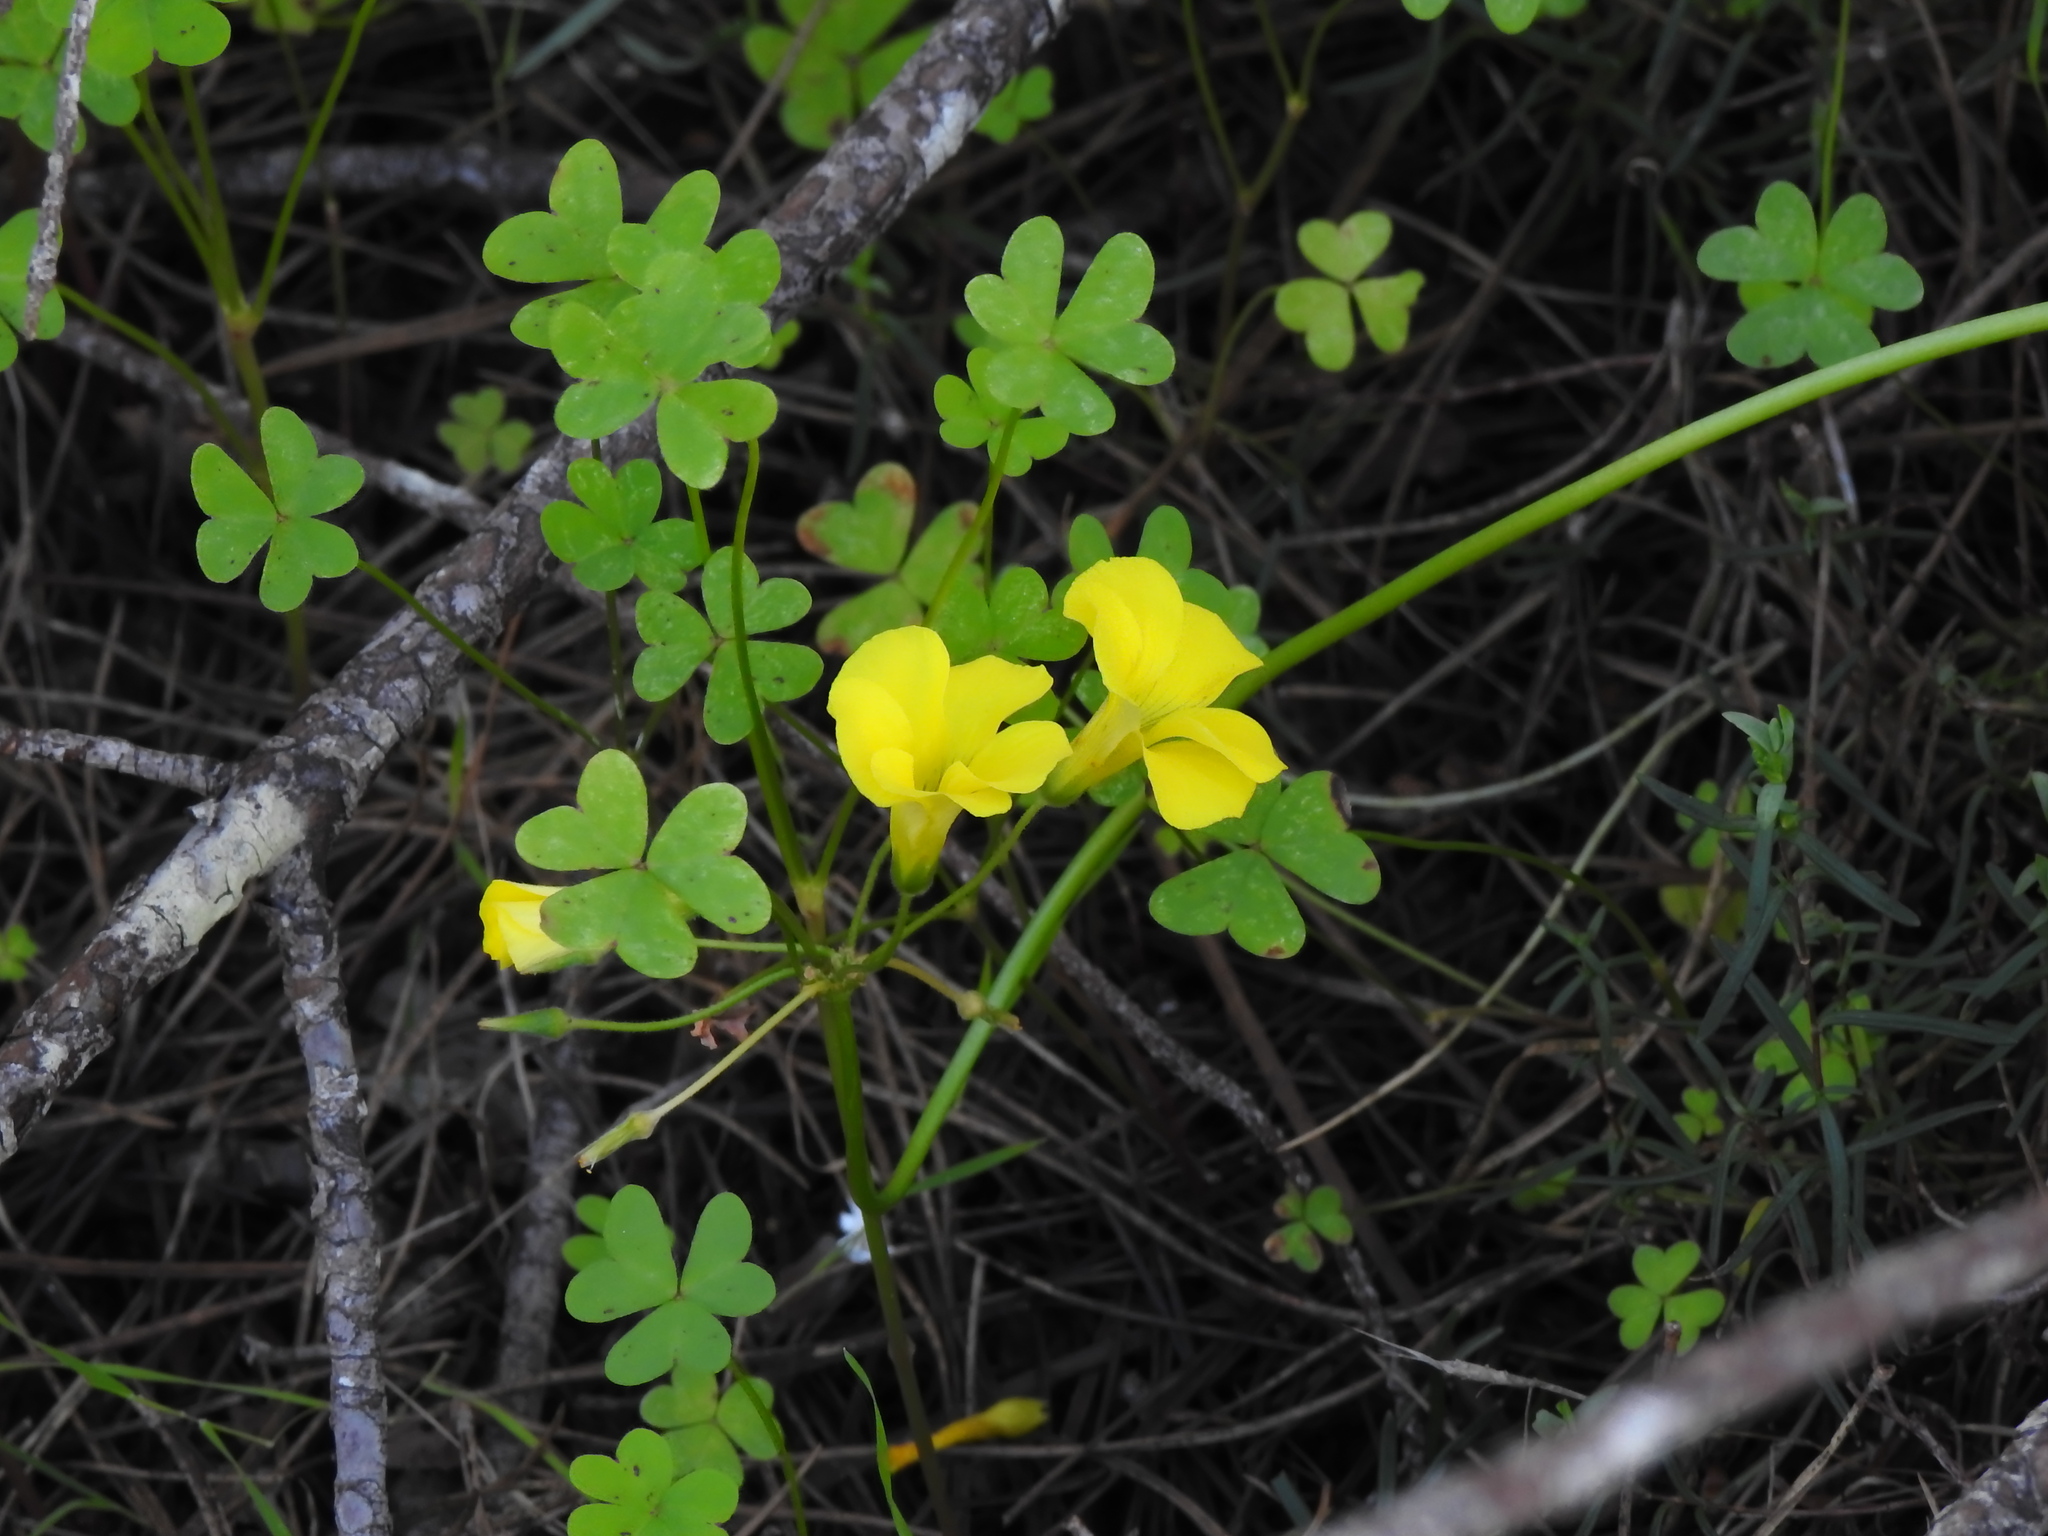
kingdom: Plantae
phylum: Tracheophyta
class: Magnoliopsida
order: Oxalidales
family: Oxalidaceae
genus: Oxalis
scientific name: Oxalis pes-caprae
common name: Bermuda-buttercup
